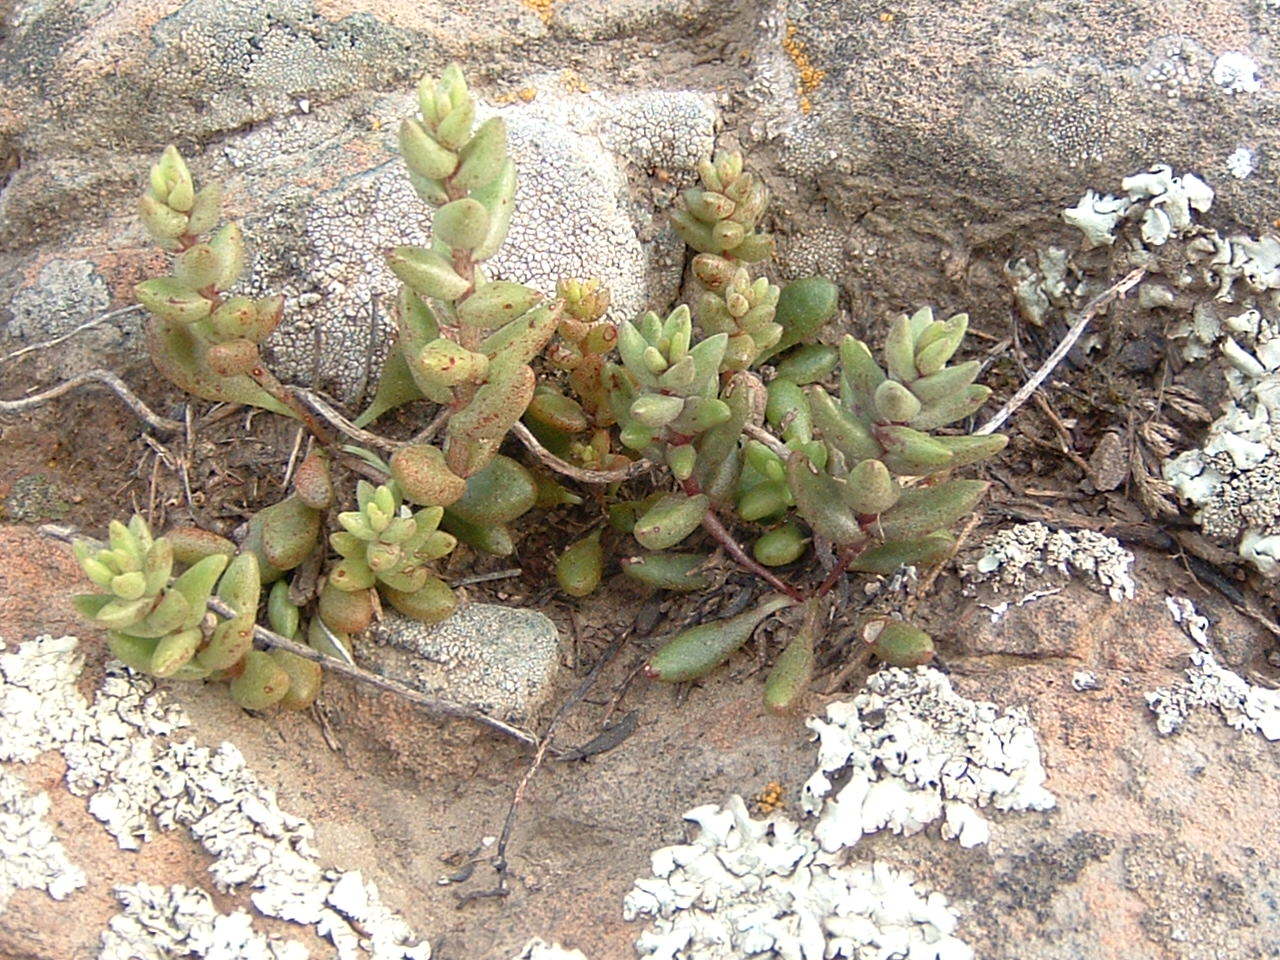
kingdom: Plantae
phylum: Tracheophyta
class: Magnoliopsida
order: Saxifragales
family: Crassulaceae
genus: Dudleya
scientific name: Dudleya blochmaniae
